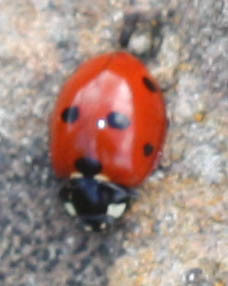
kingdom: Animalia
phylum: Arthropoda
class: Insecta
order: Coleoptera
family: Coccinellidae
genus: Coccinella
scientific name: Coccinella septempunctata
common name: Sevenspotted lady beetle
